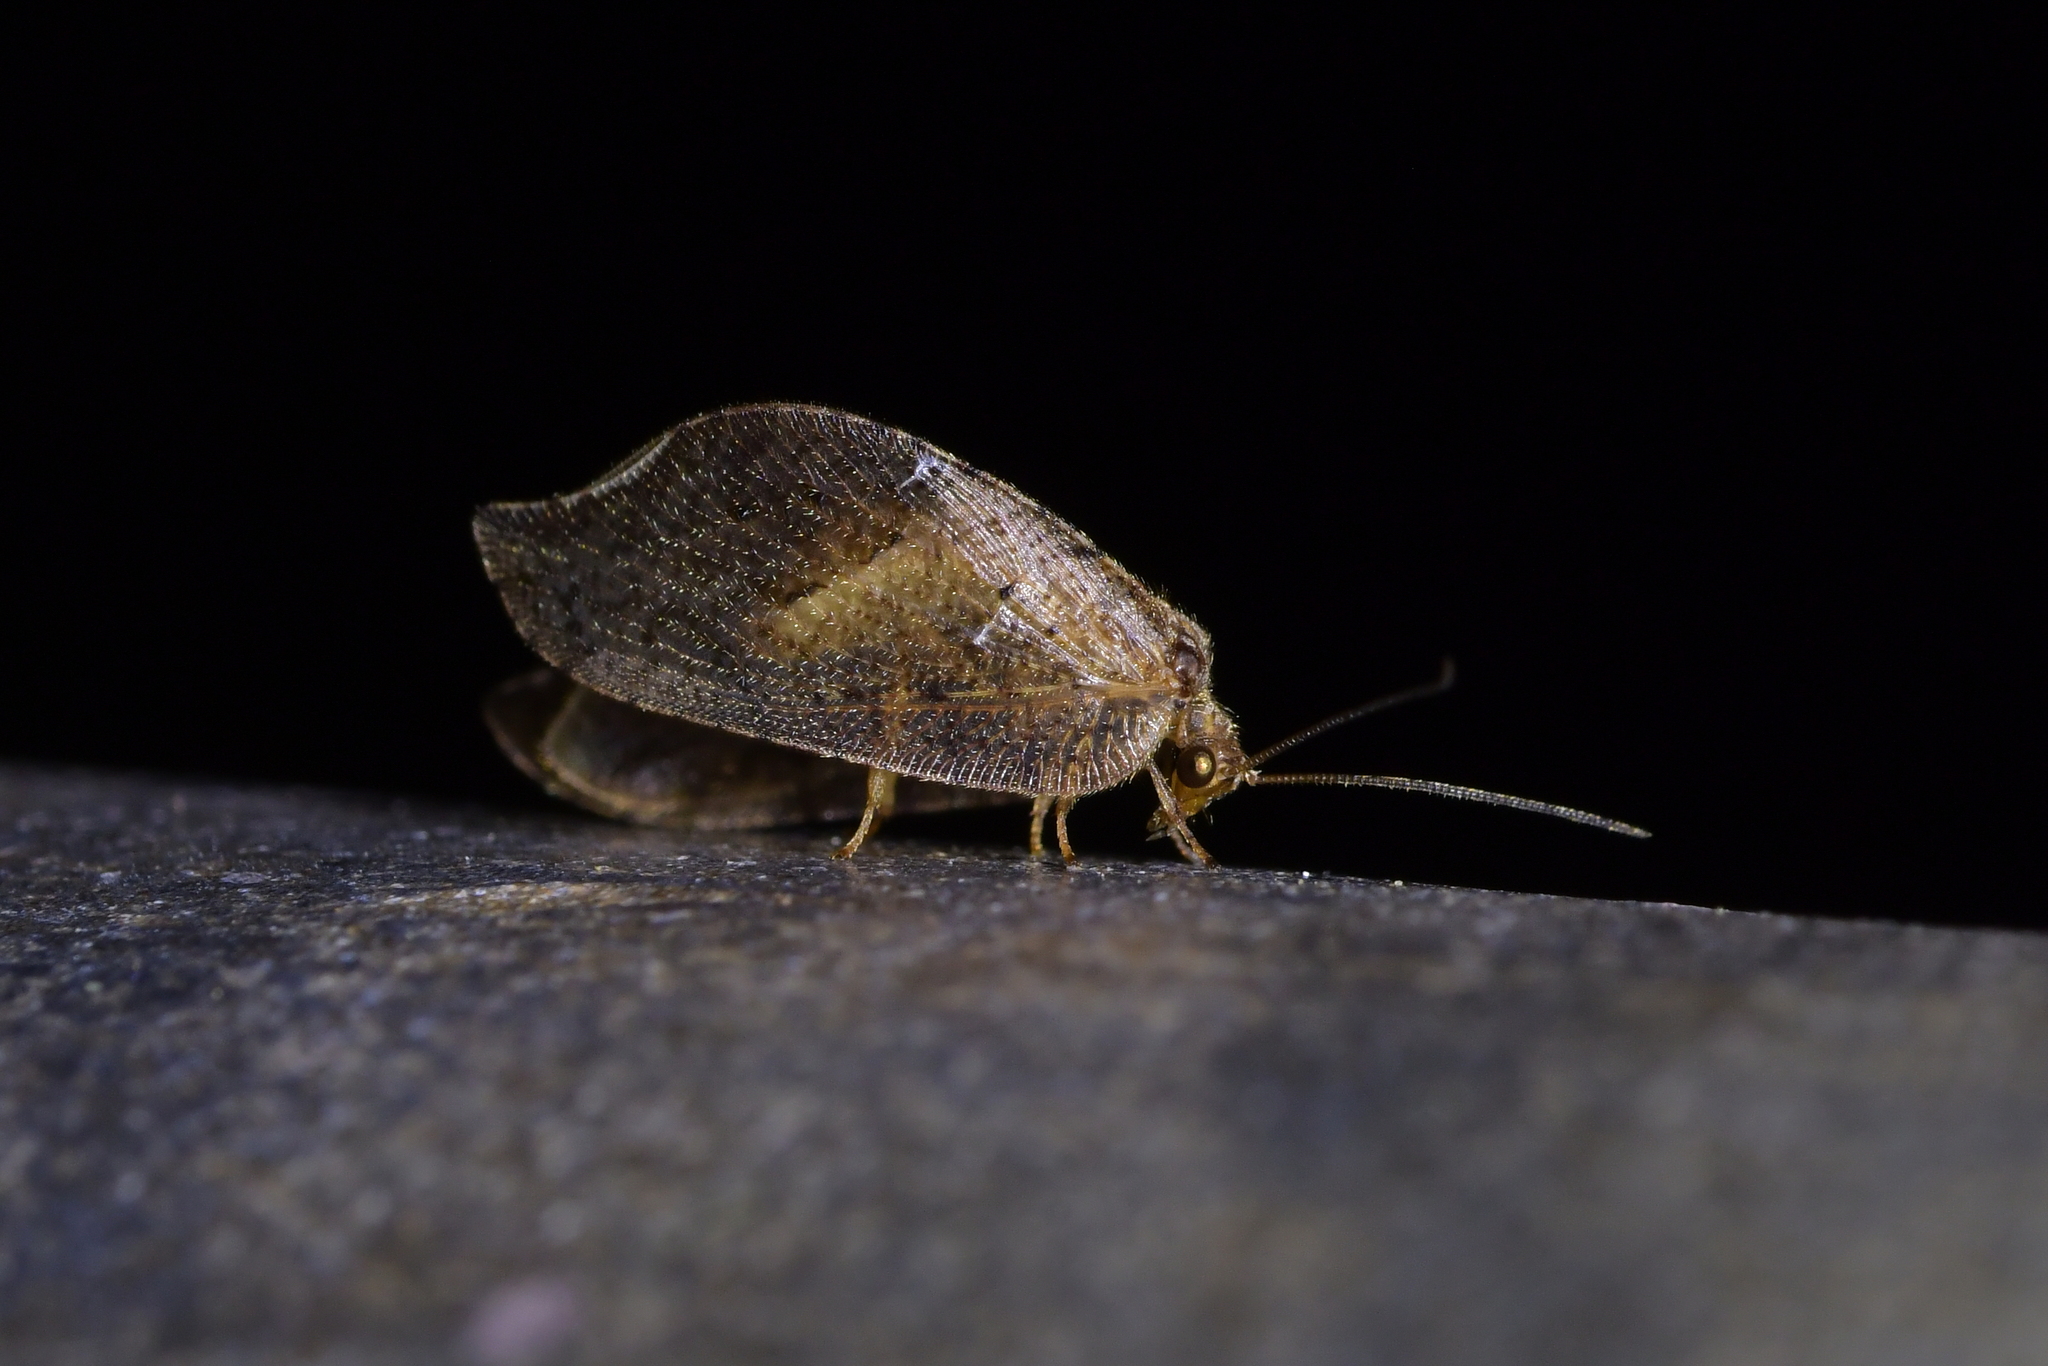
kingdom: Animalia
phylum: Arthropoda
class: Insecta
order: Neuroptera
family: Hemerobiidae
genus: Drepanacra
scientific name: Drepanacra binocula
